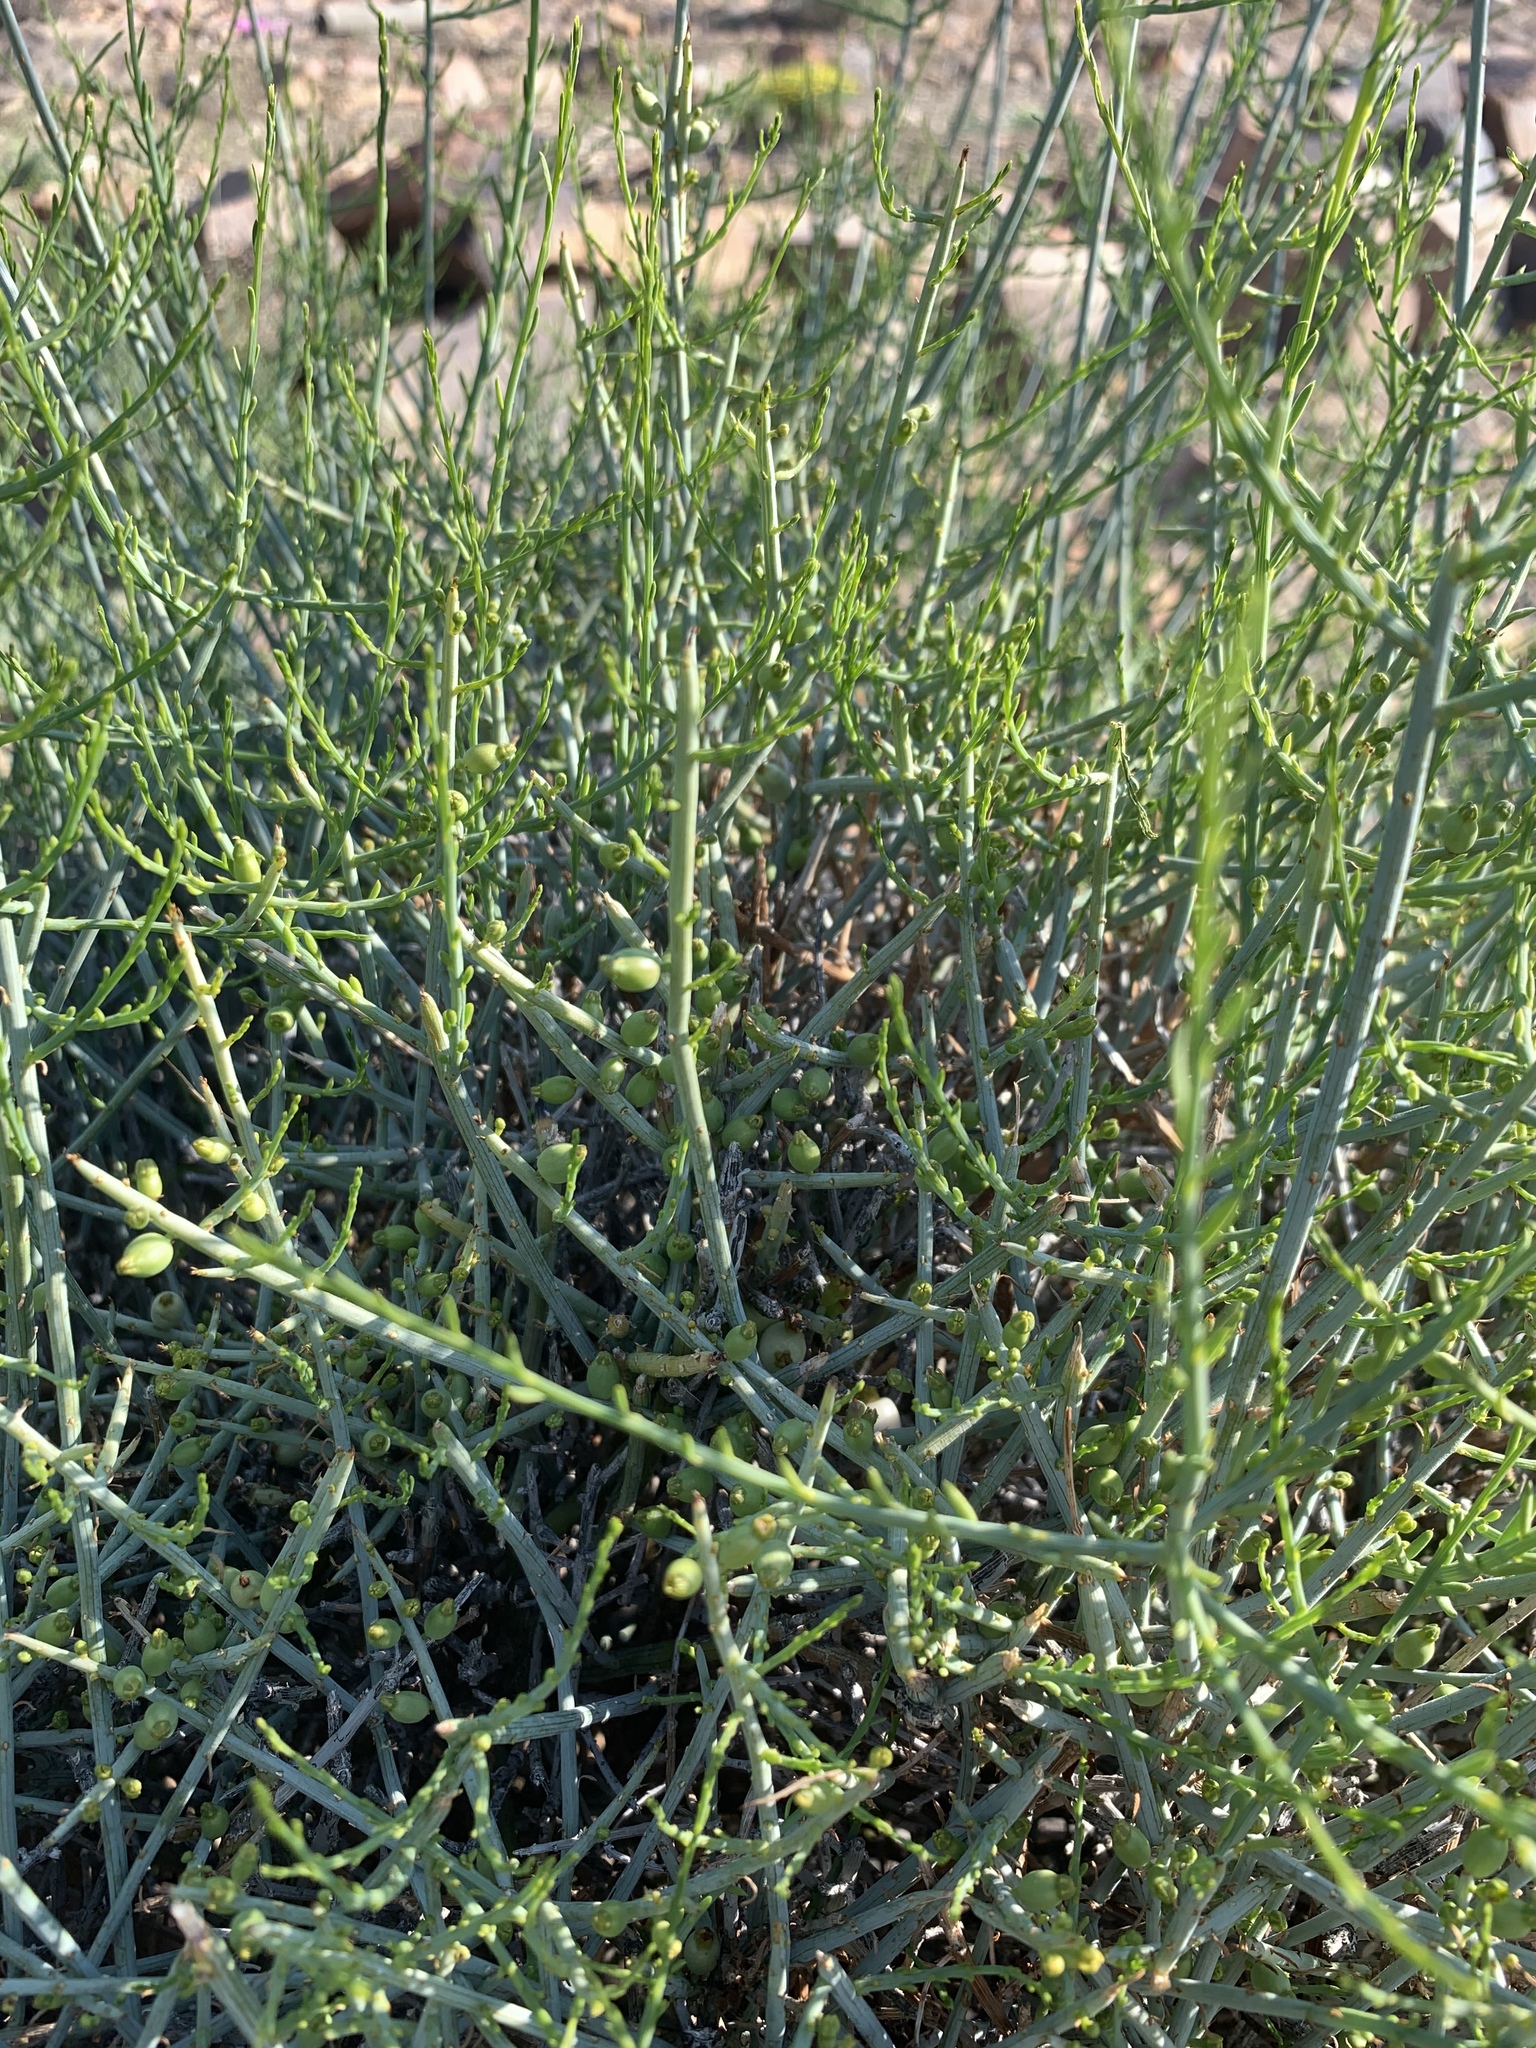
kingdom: Plantae
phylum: Tracheophyta
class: Magnoliopsida
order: Santalales
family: Thesiaceae
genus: Lacomucinaea
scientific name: Lacomucinaea lineata
